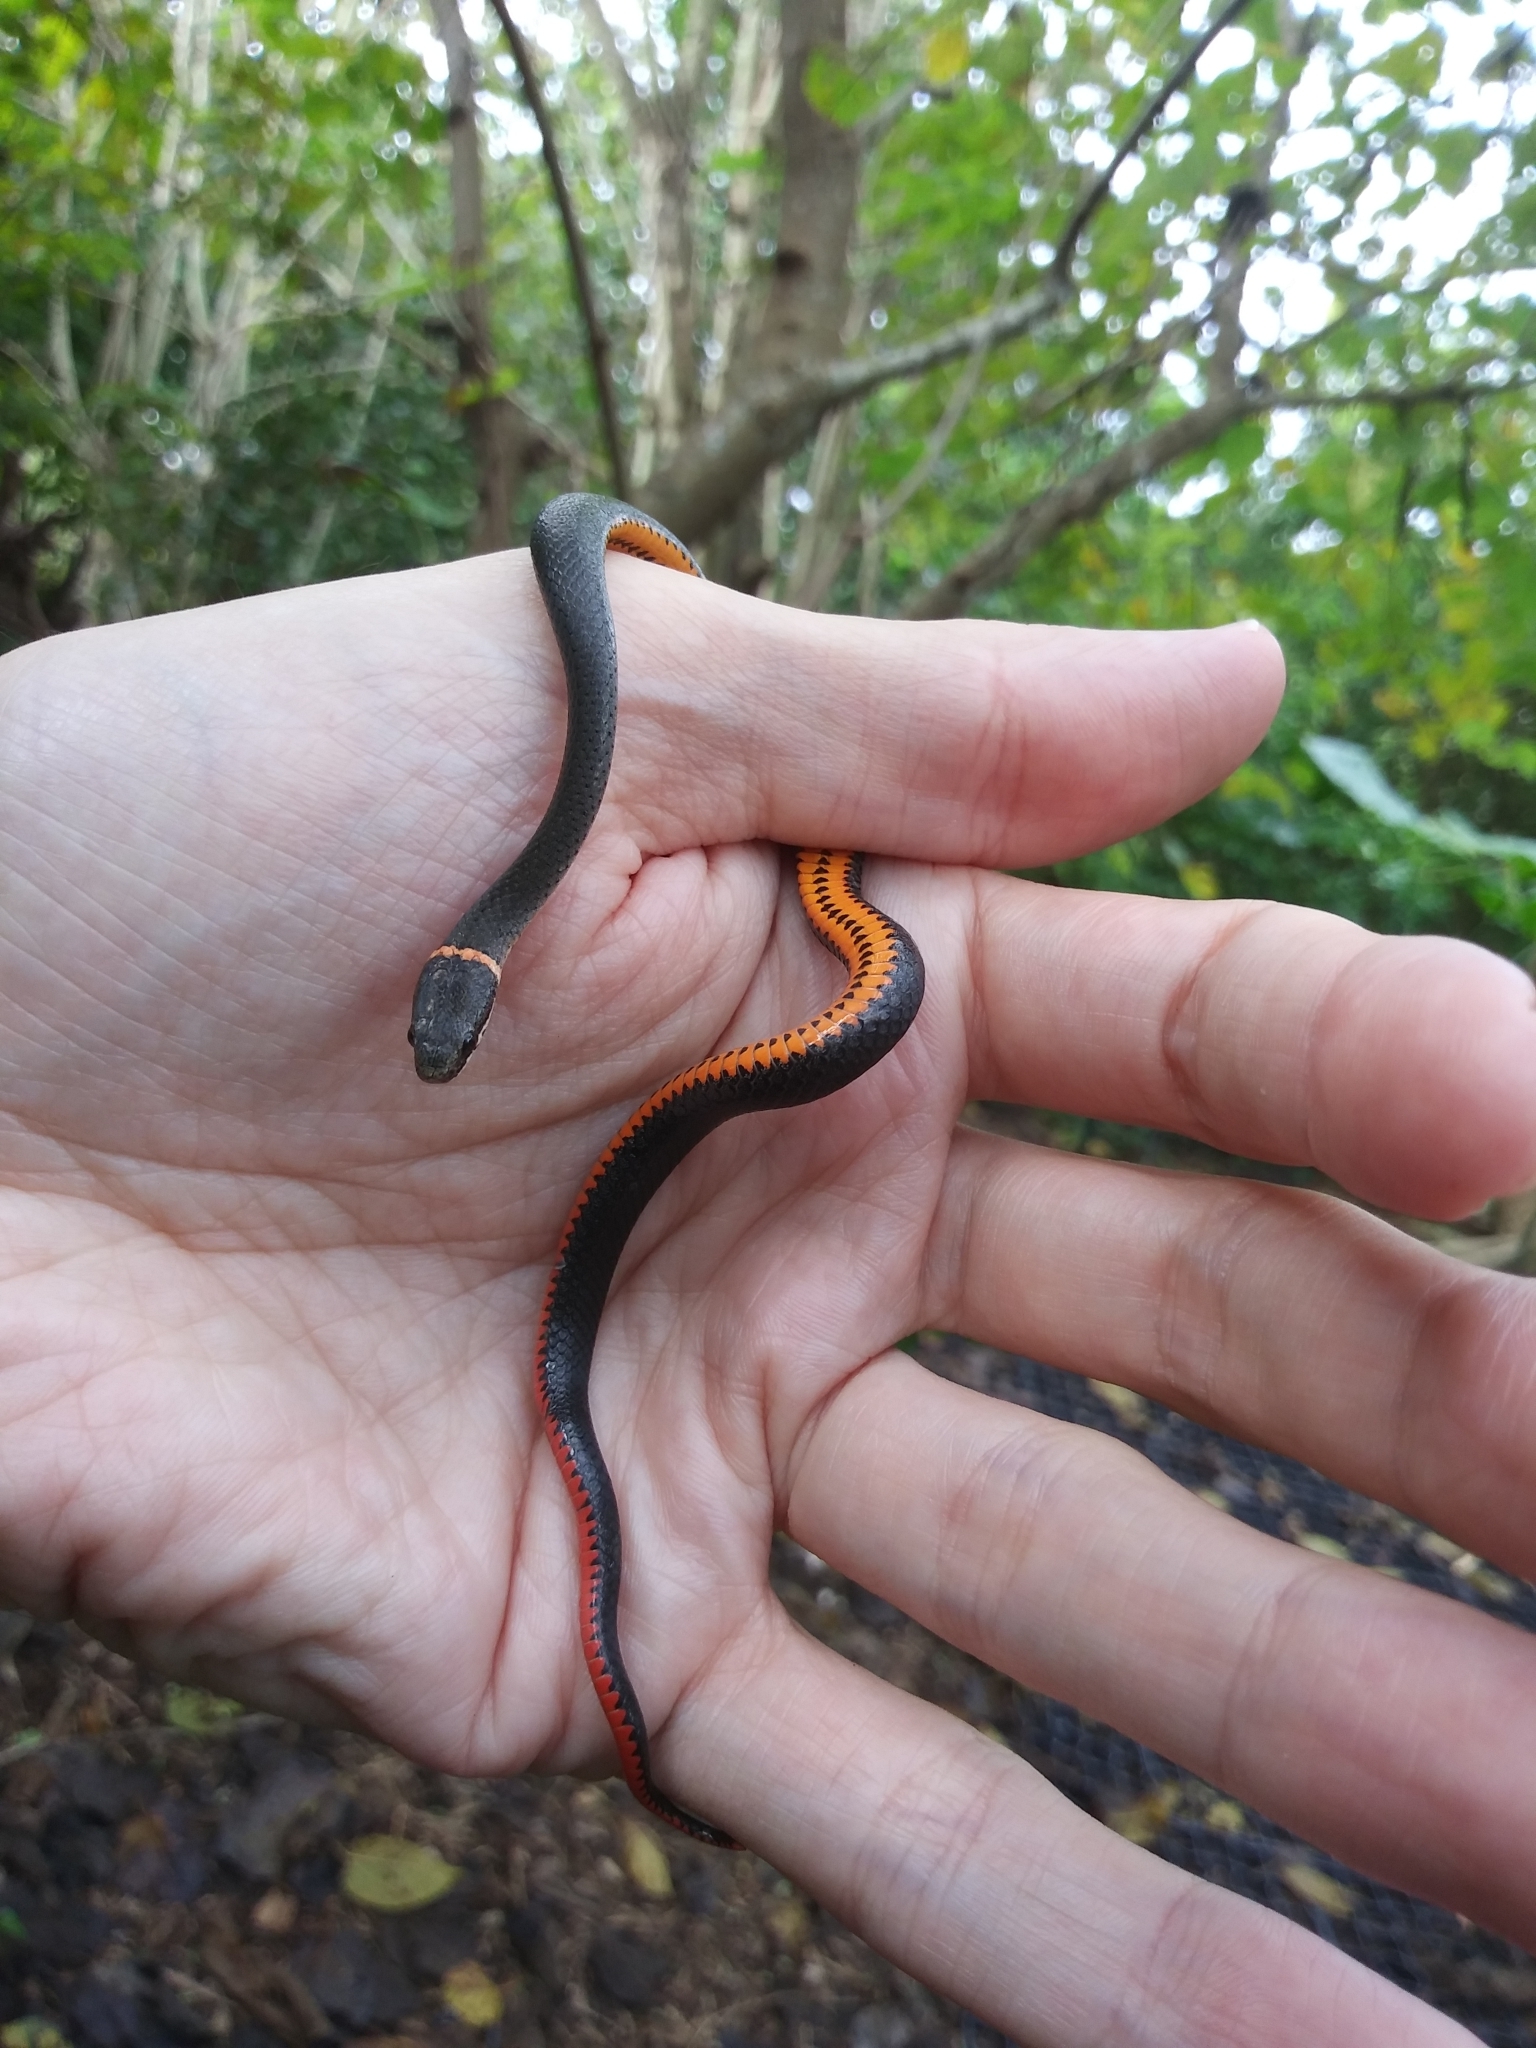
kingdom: Animalia
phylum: Chordata
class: Squamata
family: Colubridae
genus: Diadophis
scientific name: Diadophis punctatus
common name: Ringneck snake
